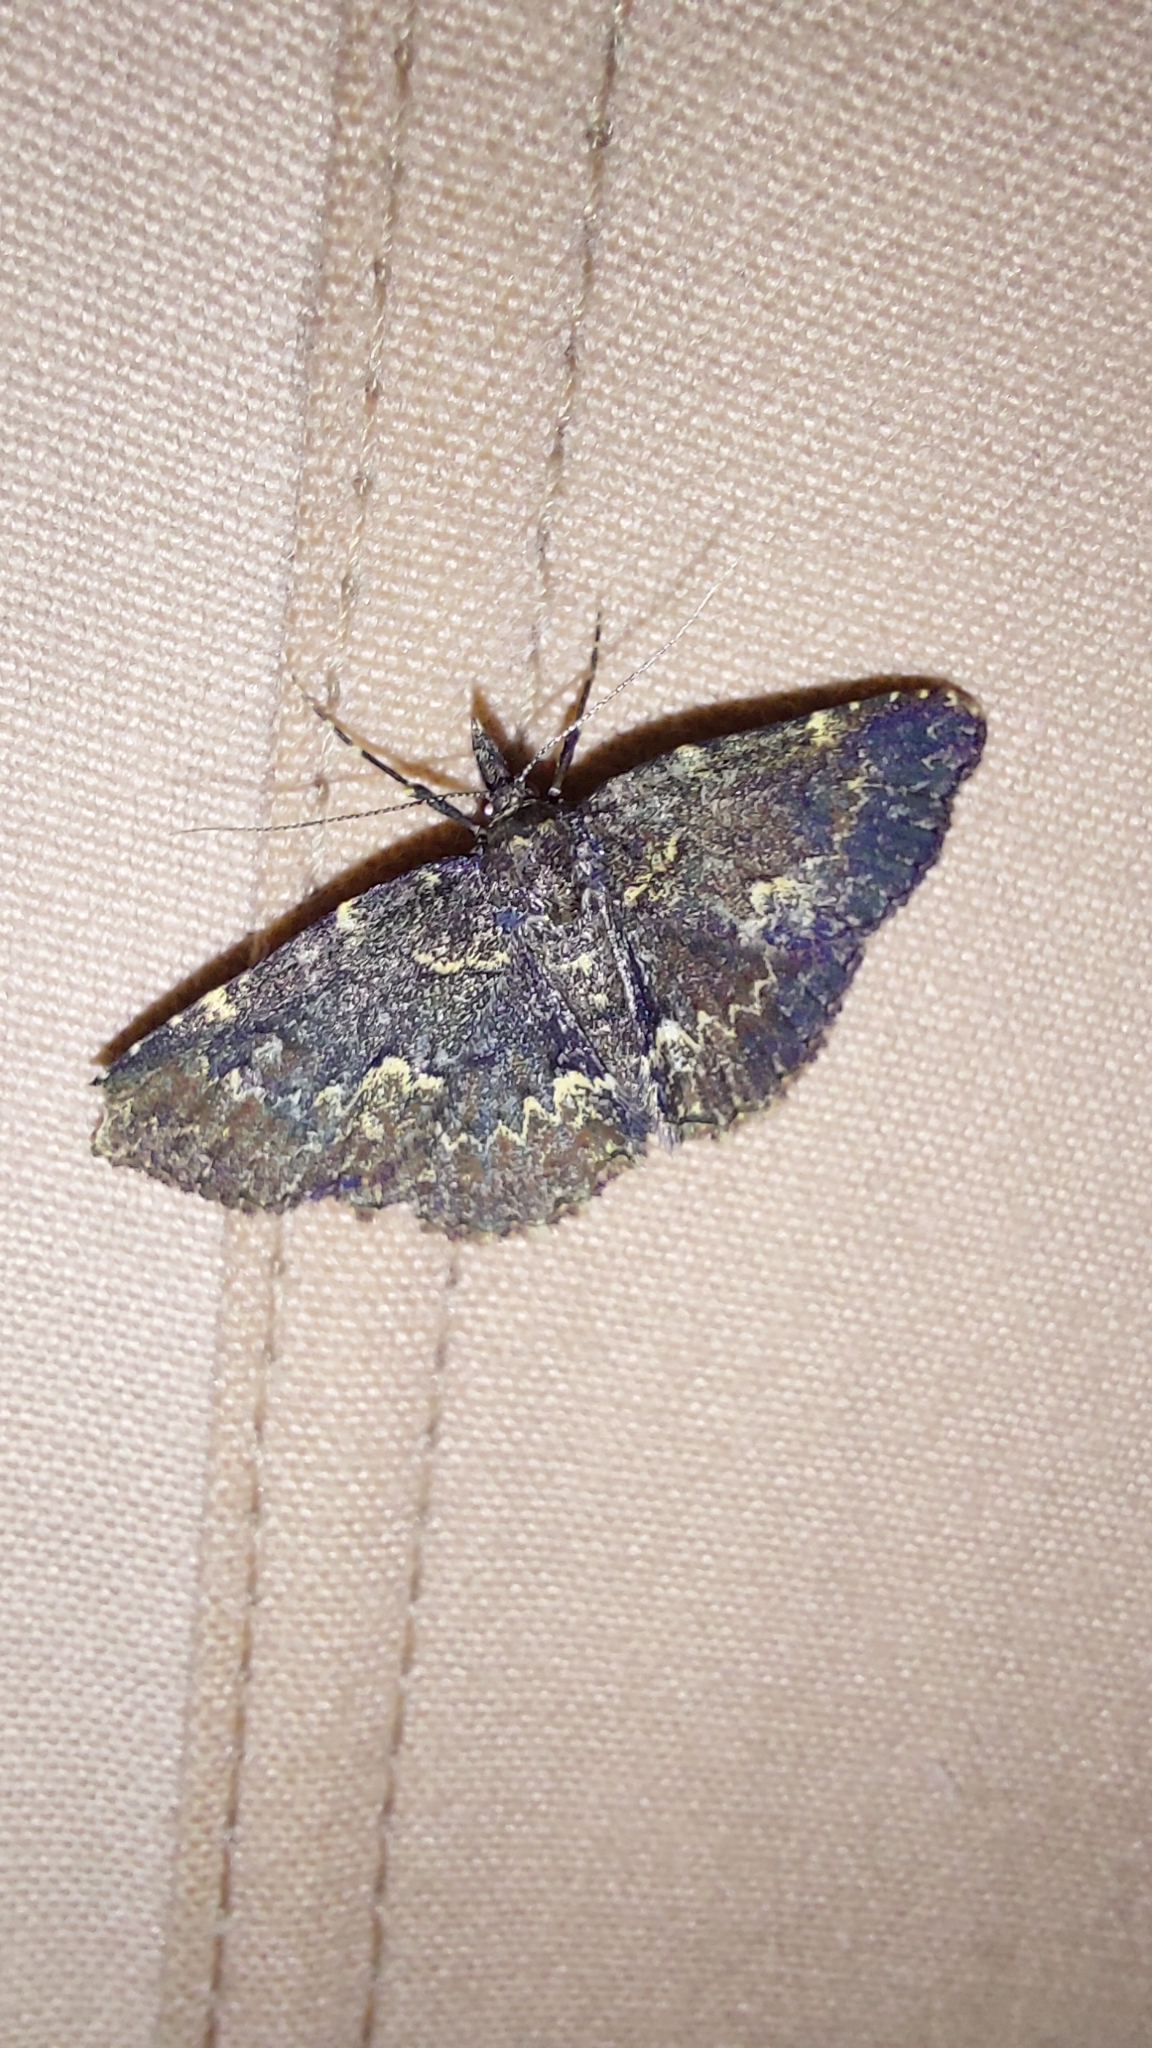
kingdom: Animalia
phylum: Arthropoda
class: Insecta
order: Lepidoptera
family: Erebidae
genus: Parascotia
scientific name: Parascotia fuliginaria
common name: Waved black
